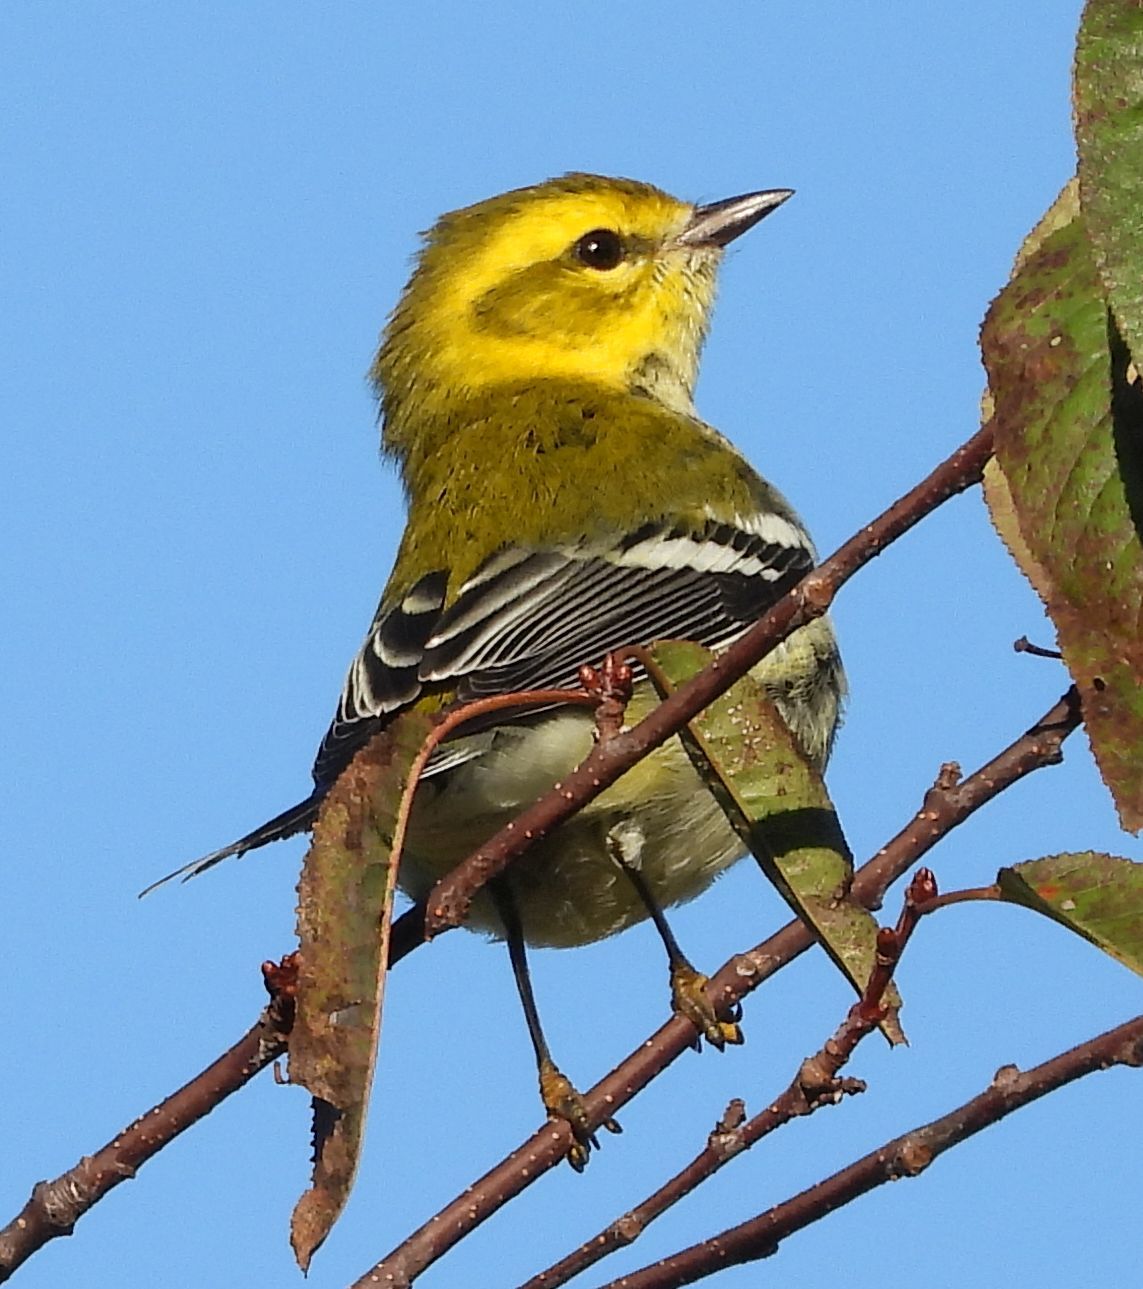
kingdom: Animalia
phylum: Chordata
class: Aves
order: Passeriformes
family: Parulidae
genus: Setophaga
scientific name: Setophaga virens
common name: Black-throated green warbler
